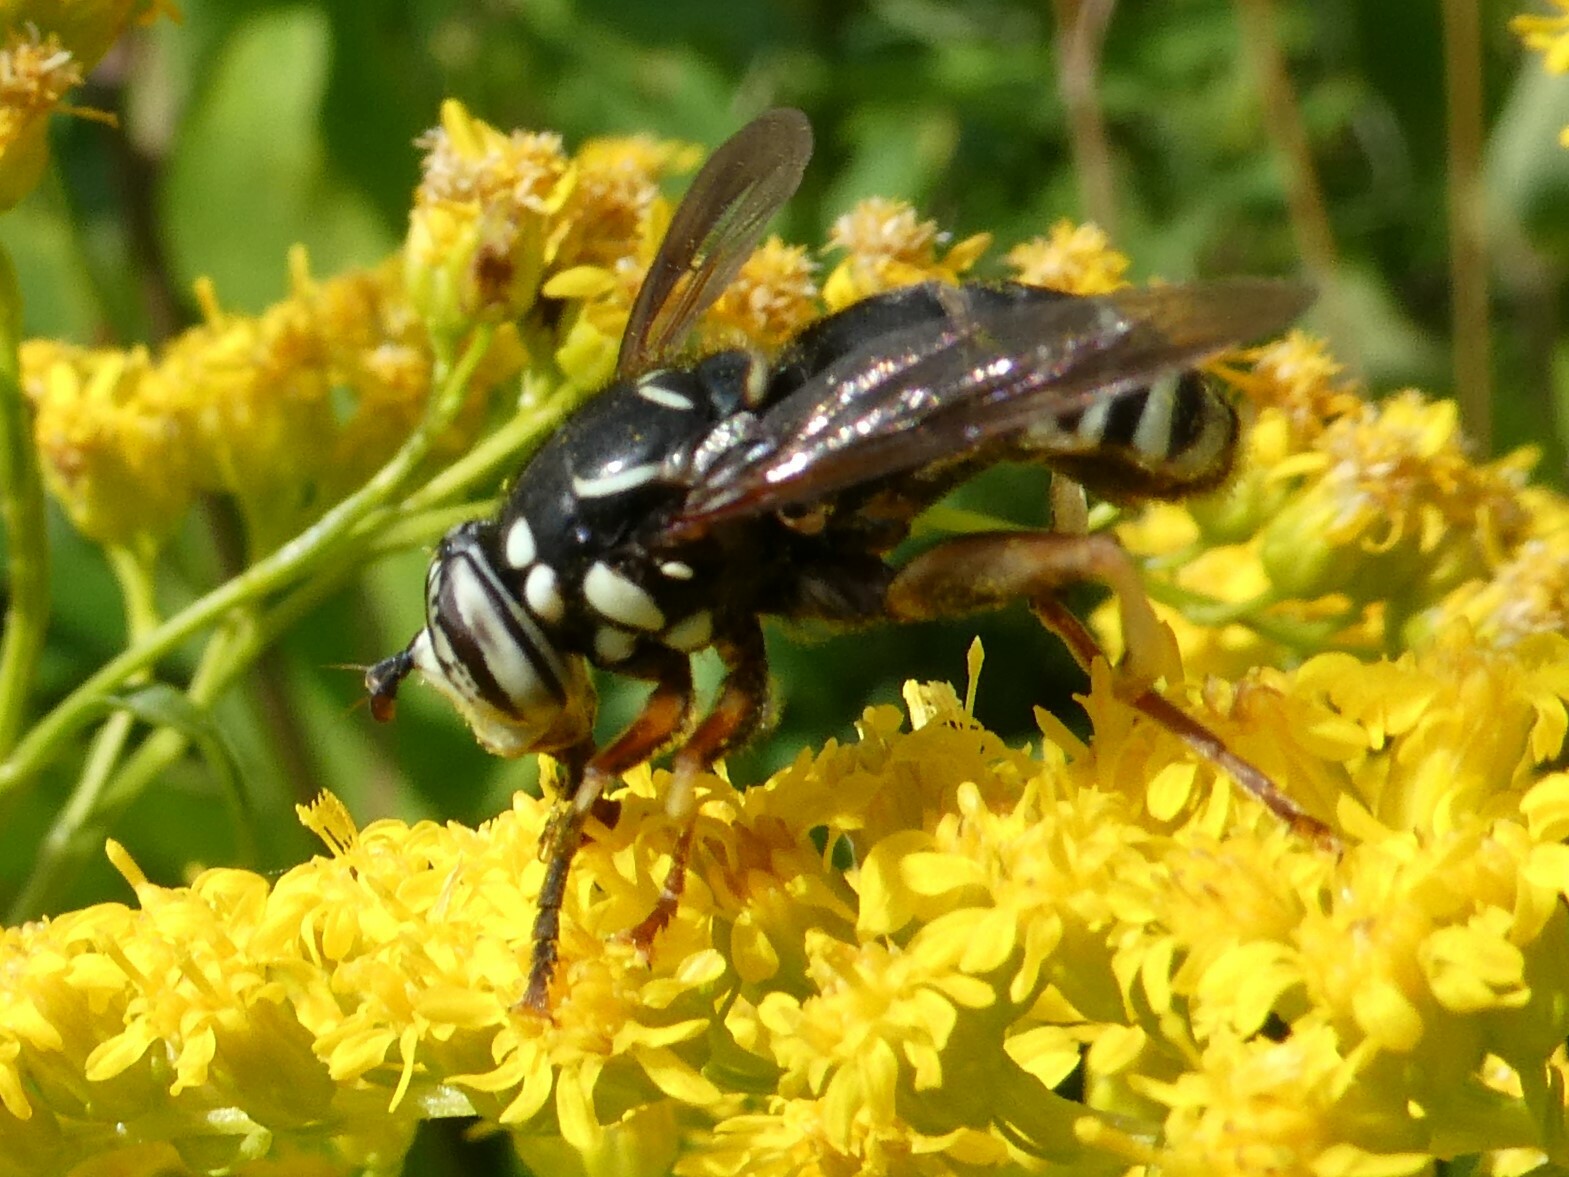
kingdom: Animalia
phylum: Arthropoda
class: Insecta
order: Diptera
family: Syrphidae
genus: Spilomyia
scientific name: Spilomyia fusca
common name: Bald-faced hornet fly
